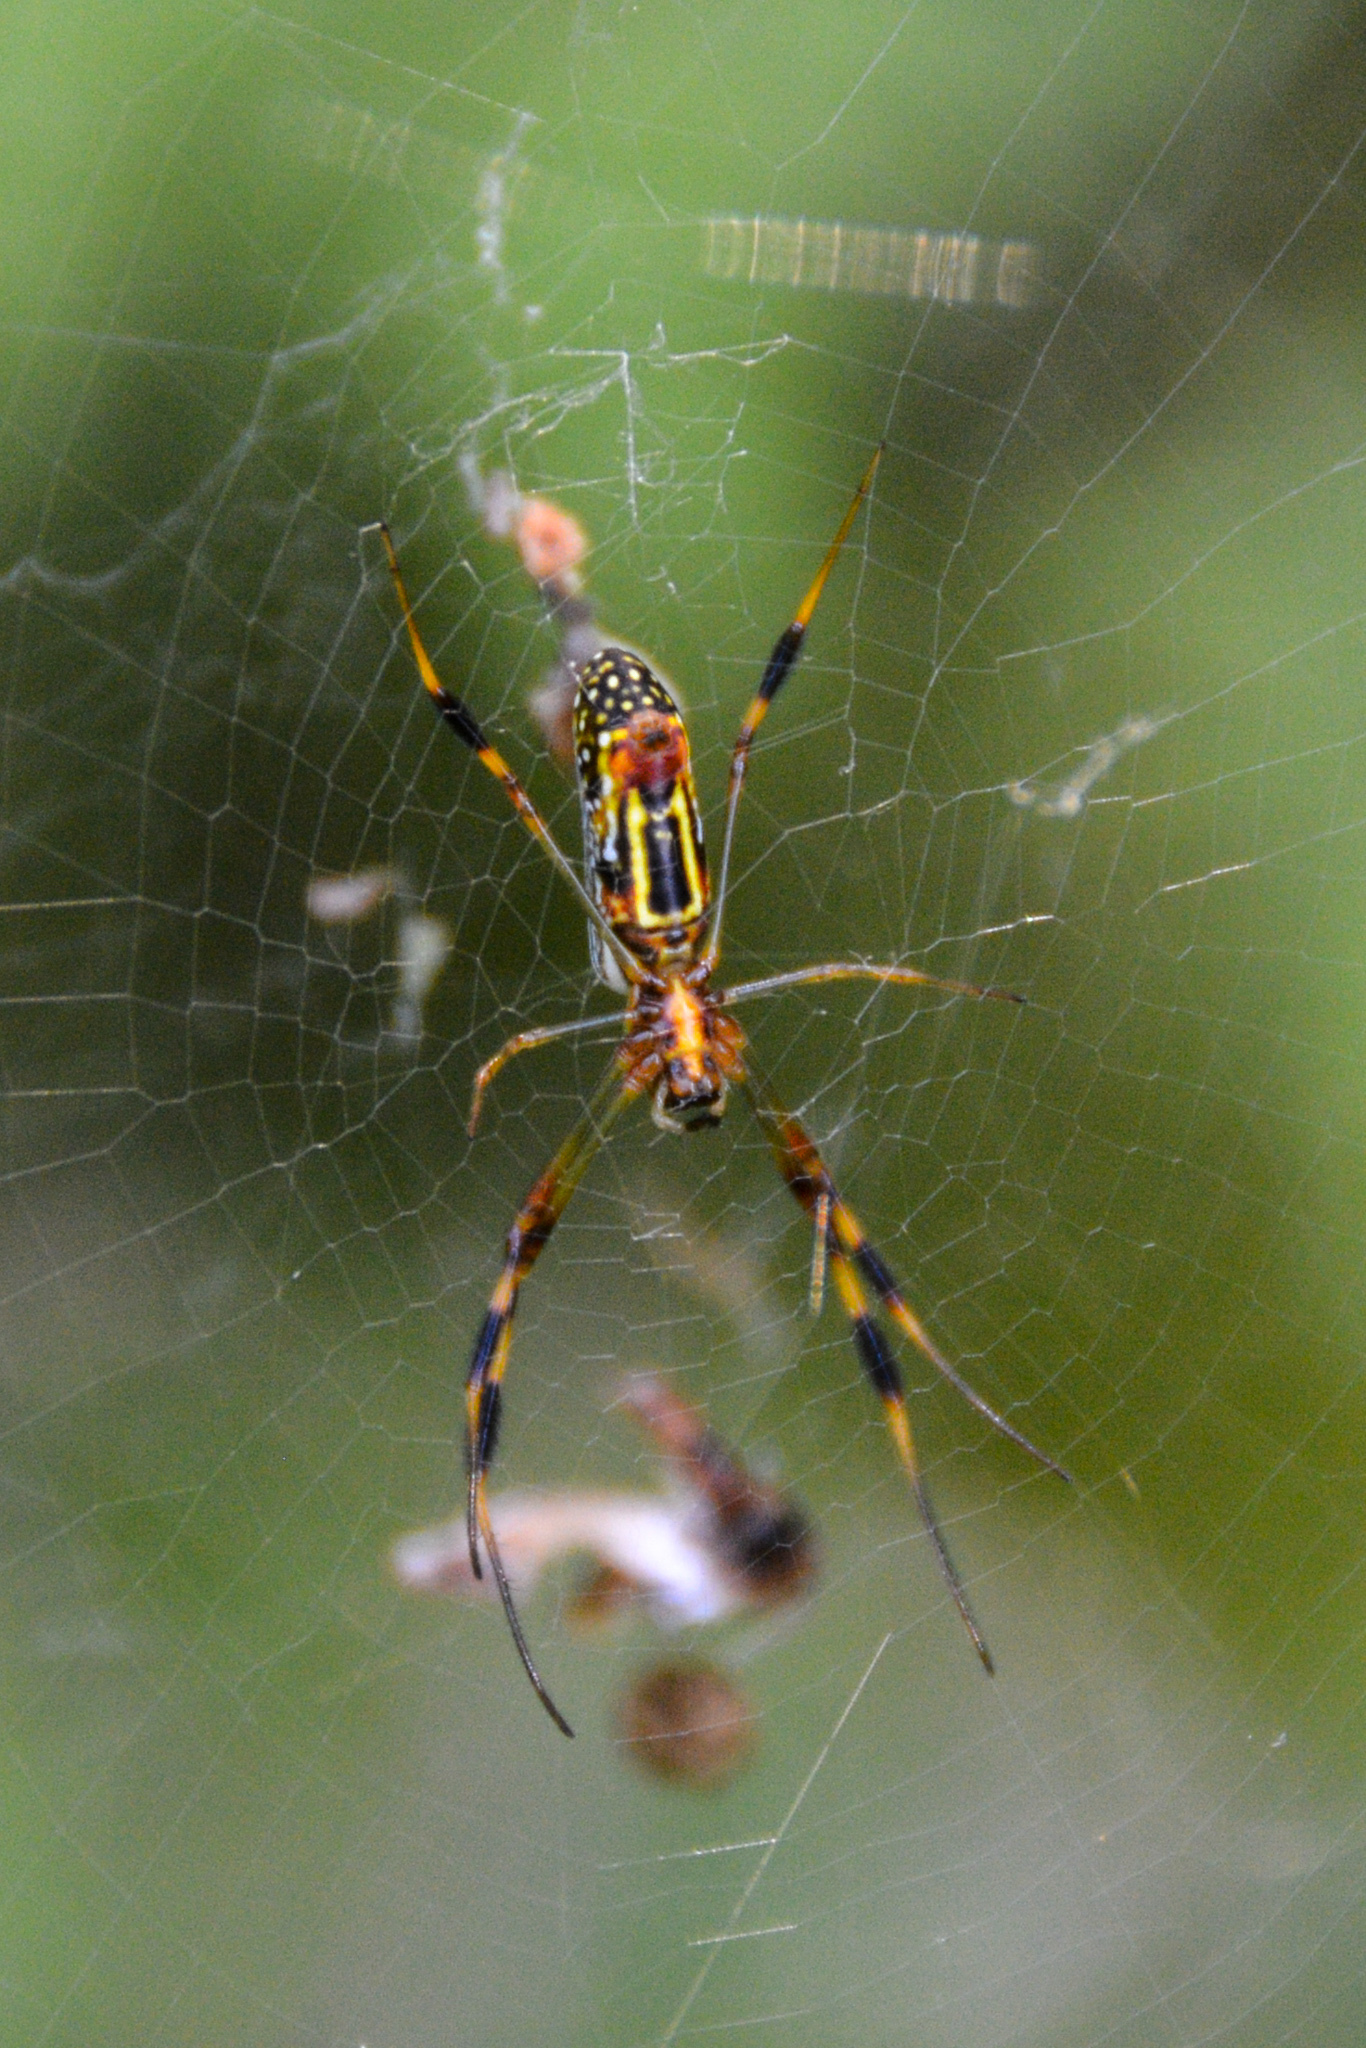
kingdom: Animalia
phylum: Arthropoda
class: Arachnida
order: Araneae
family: Araneidae
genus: Trichonephila
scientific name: Trichonephila clavipes
